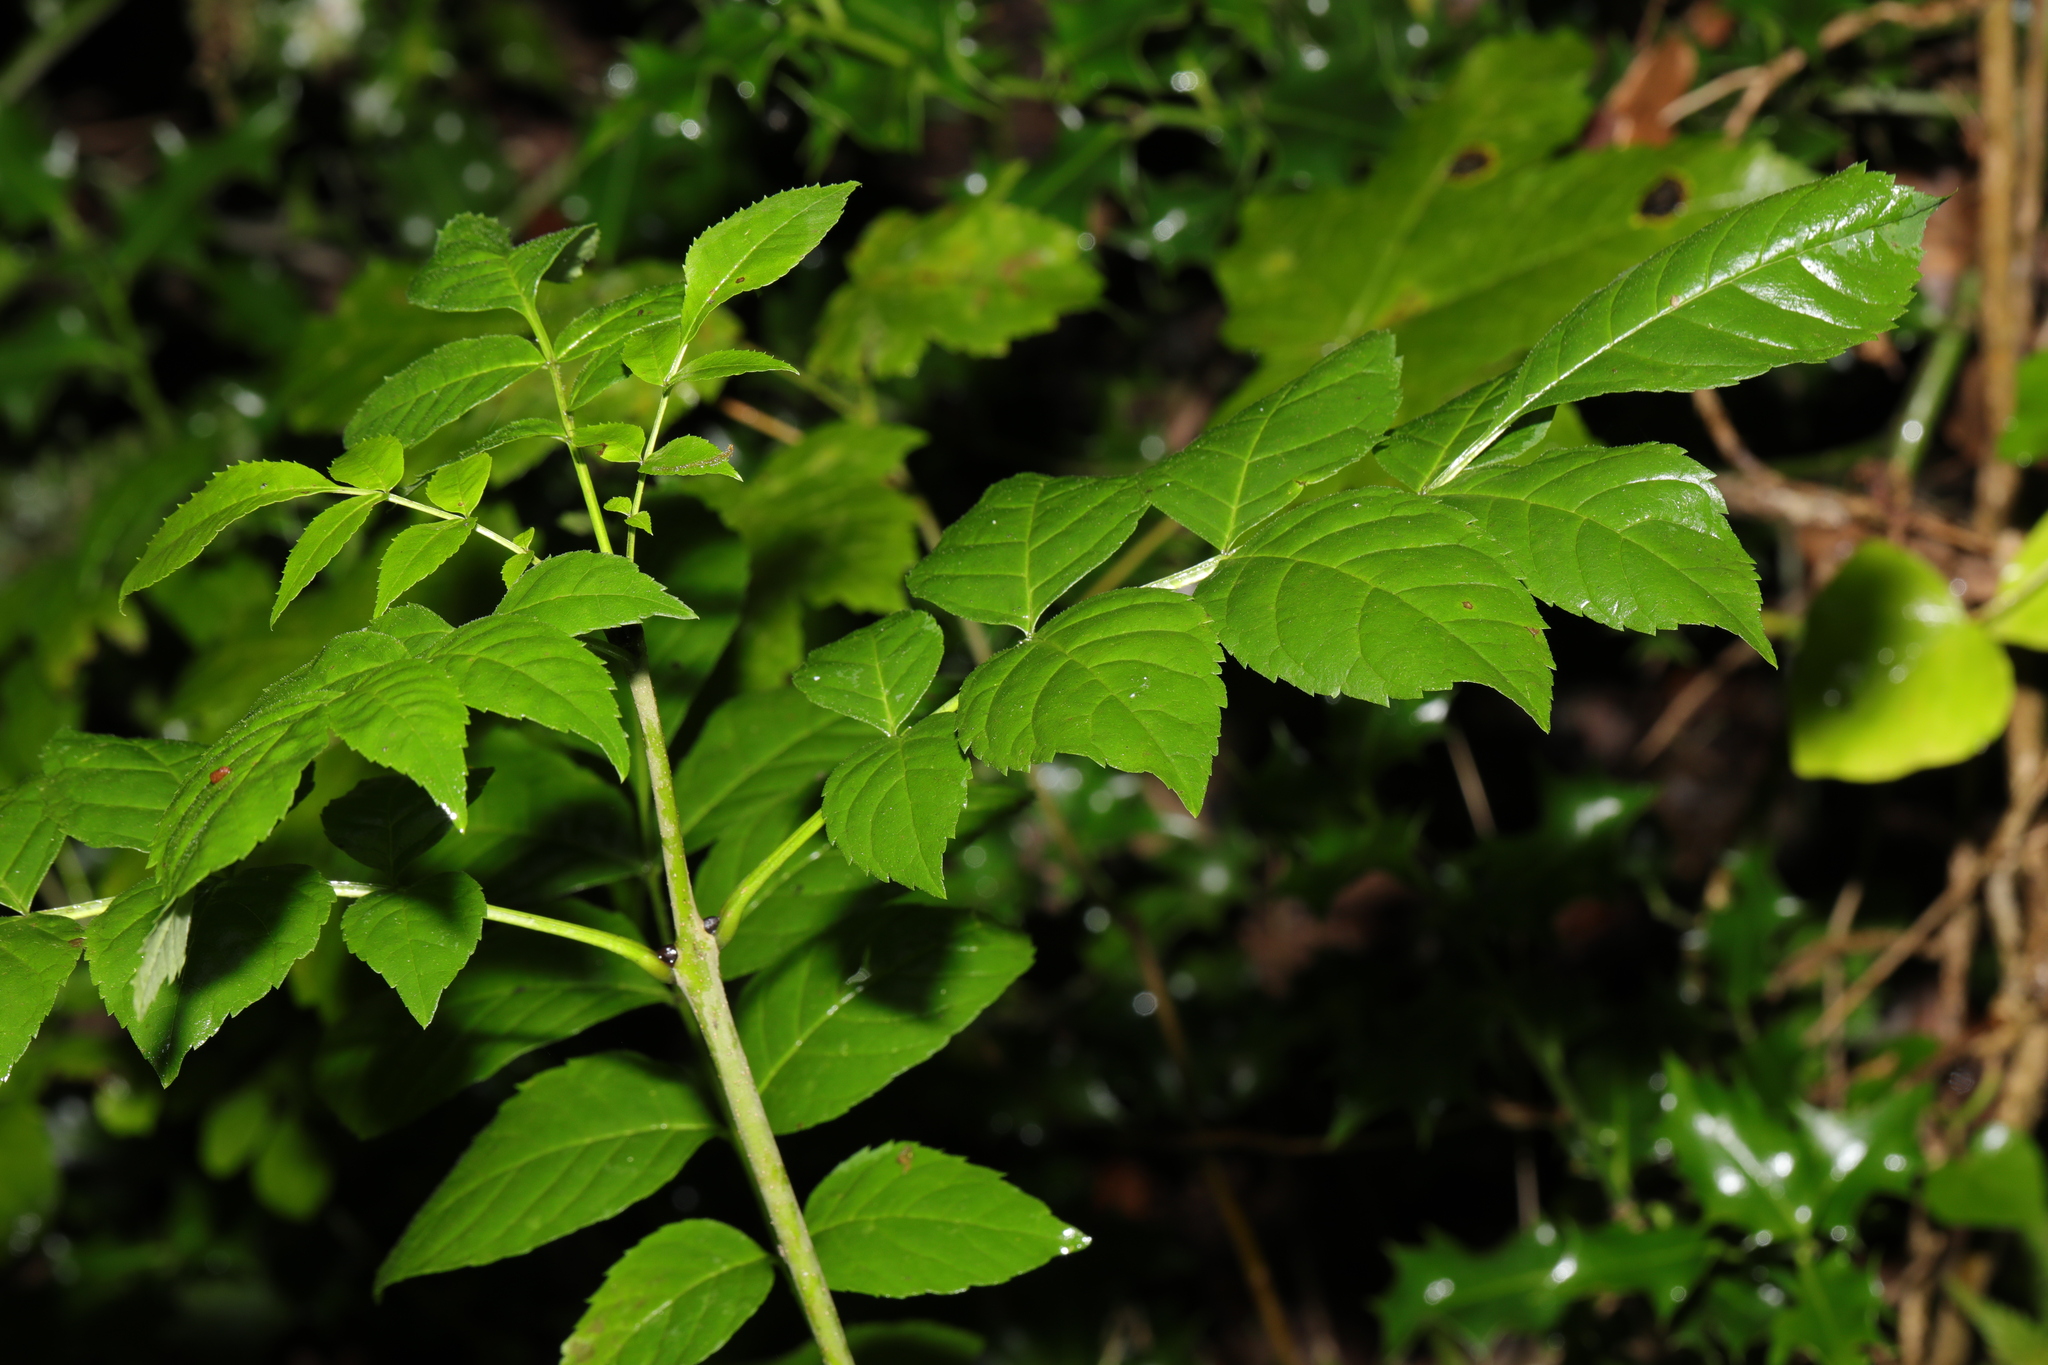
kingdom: Plantae
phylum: Tracheophyta
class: Magnoliopsida
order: Lamiales
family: Oleaceae
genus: Fraxinus
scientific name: Fraxinus excelsior
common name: European ash
